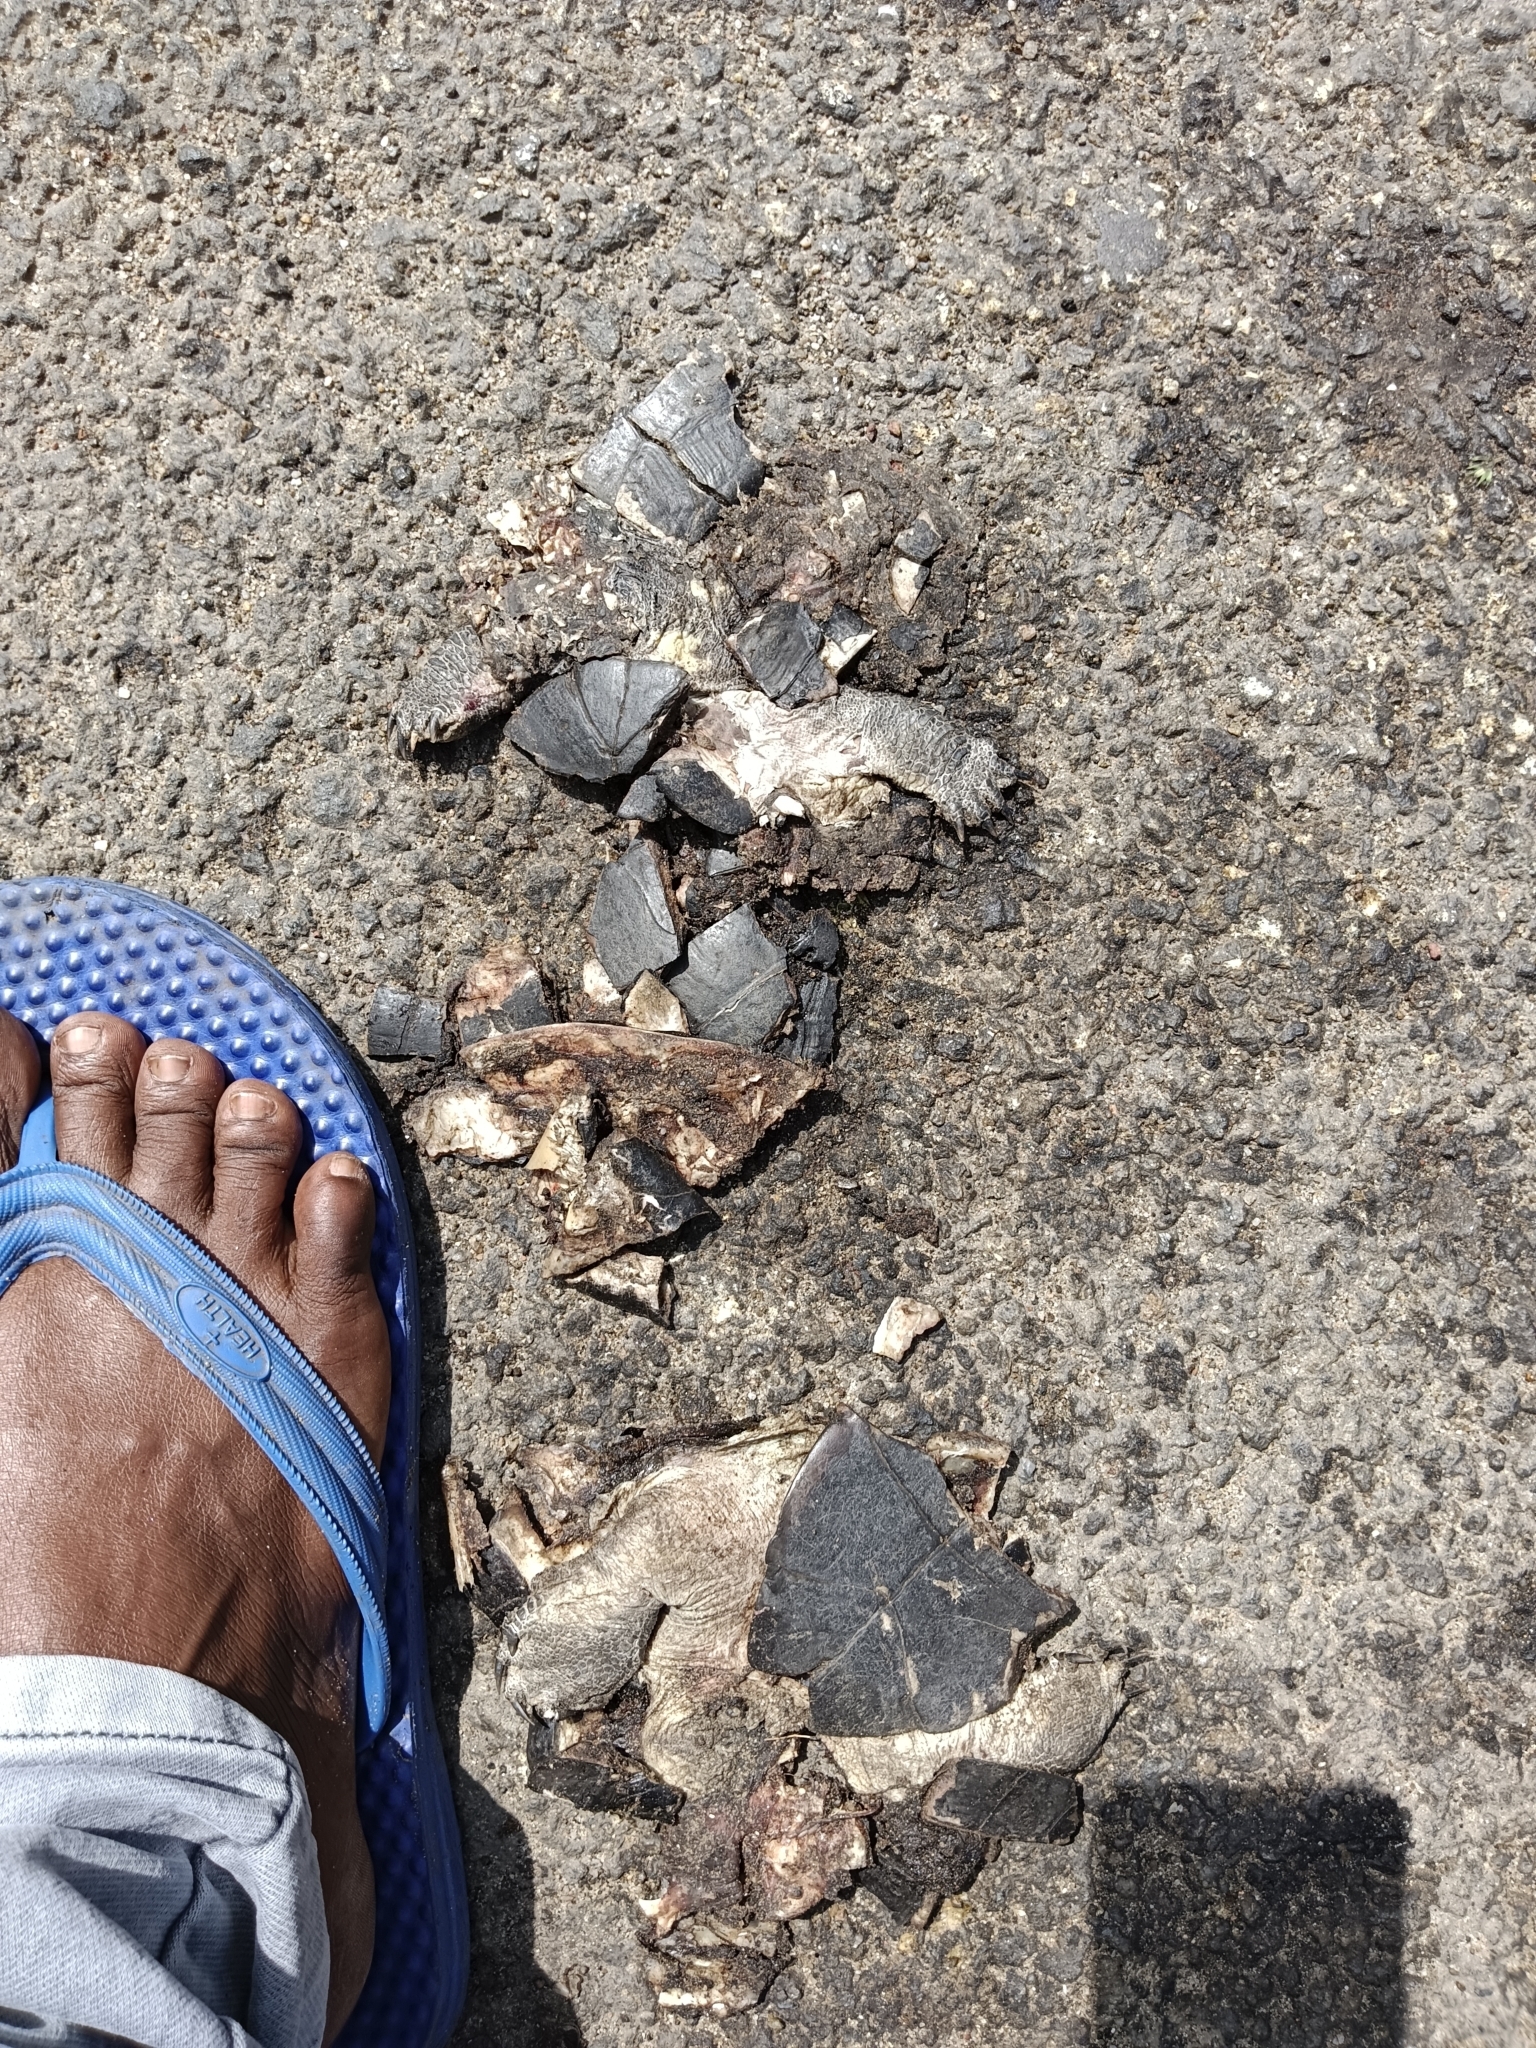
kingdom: Animalia
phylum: Chordata
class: Testudines
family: Geoemydidae
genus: Melanochelys
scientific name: Melanochelys trijuga
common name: Indian black turtle
